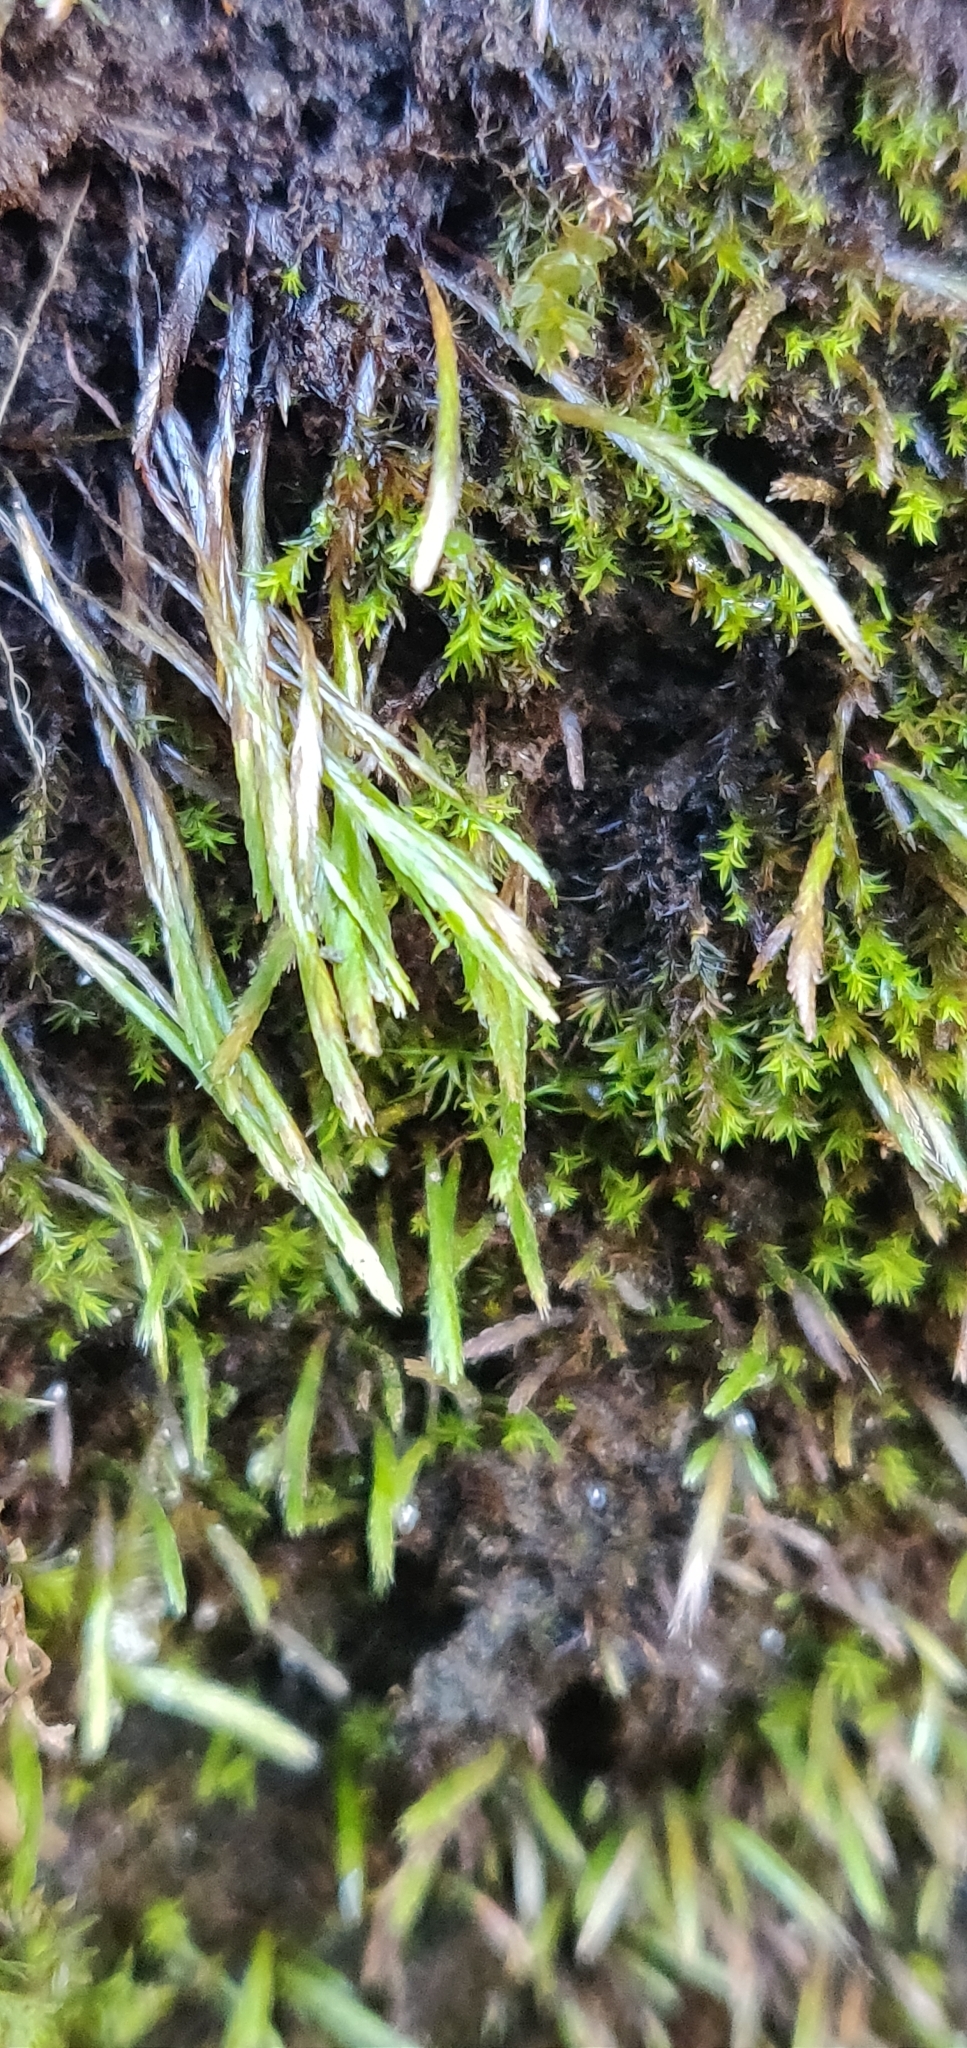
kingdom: Plantae
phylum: Bryophyta
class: Bryopsida
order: Bryoxiphiales
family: Bryoxiphiaceae
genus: Bryoxiphium
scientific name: Bryoxiphium norvegicum
